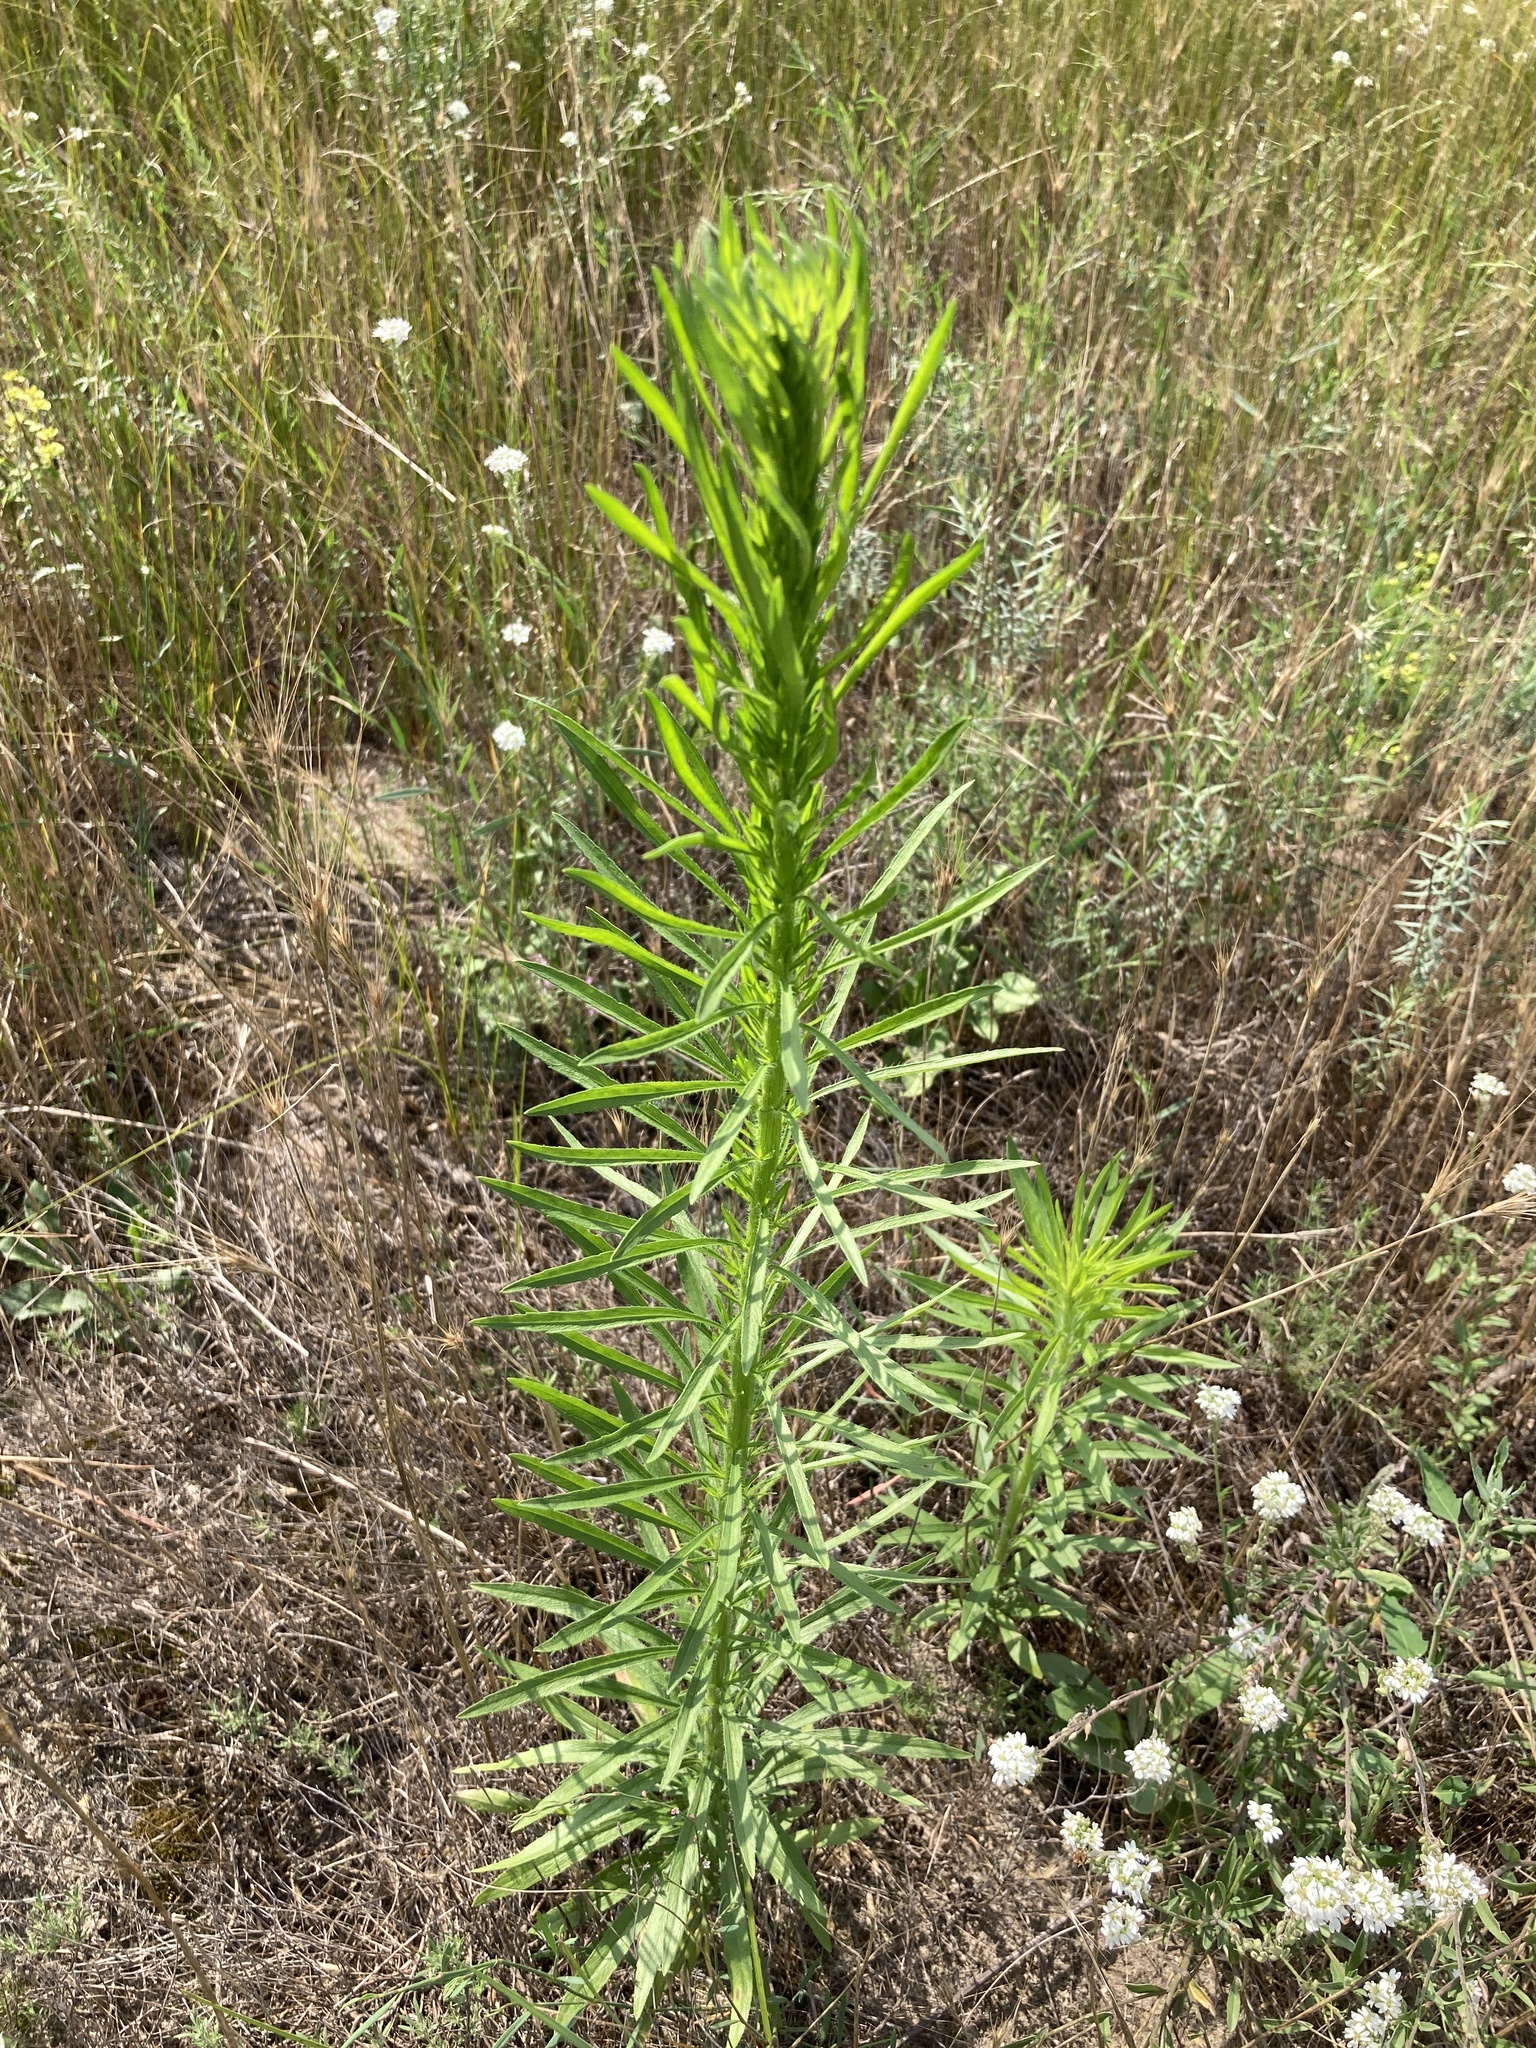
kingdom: Plantae
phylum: Tracheophyta
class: Magnoliopsida
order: Asterales
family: Asteraceae
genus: Erigeron
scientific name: Erigeron canadensis
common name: Canadian fleabane
